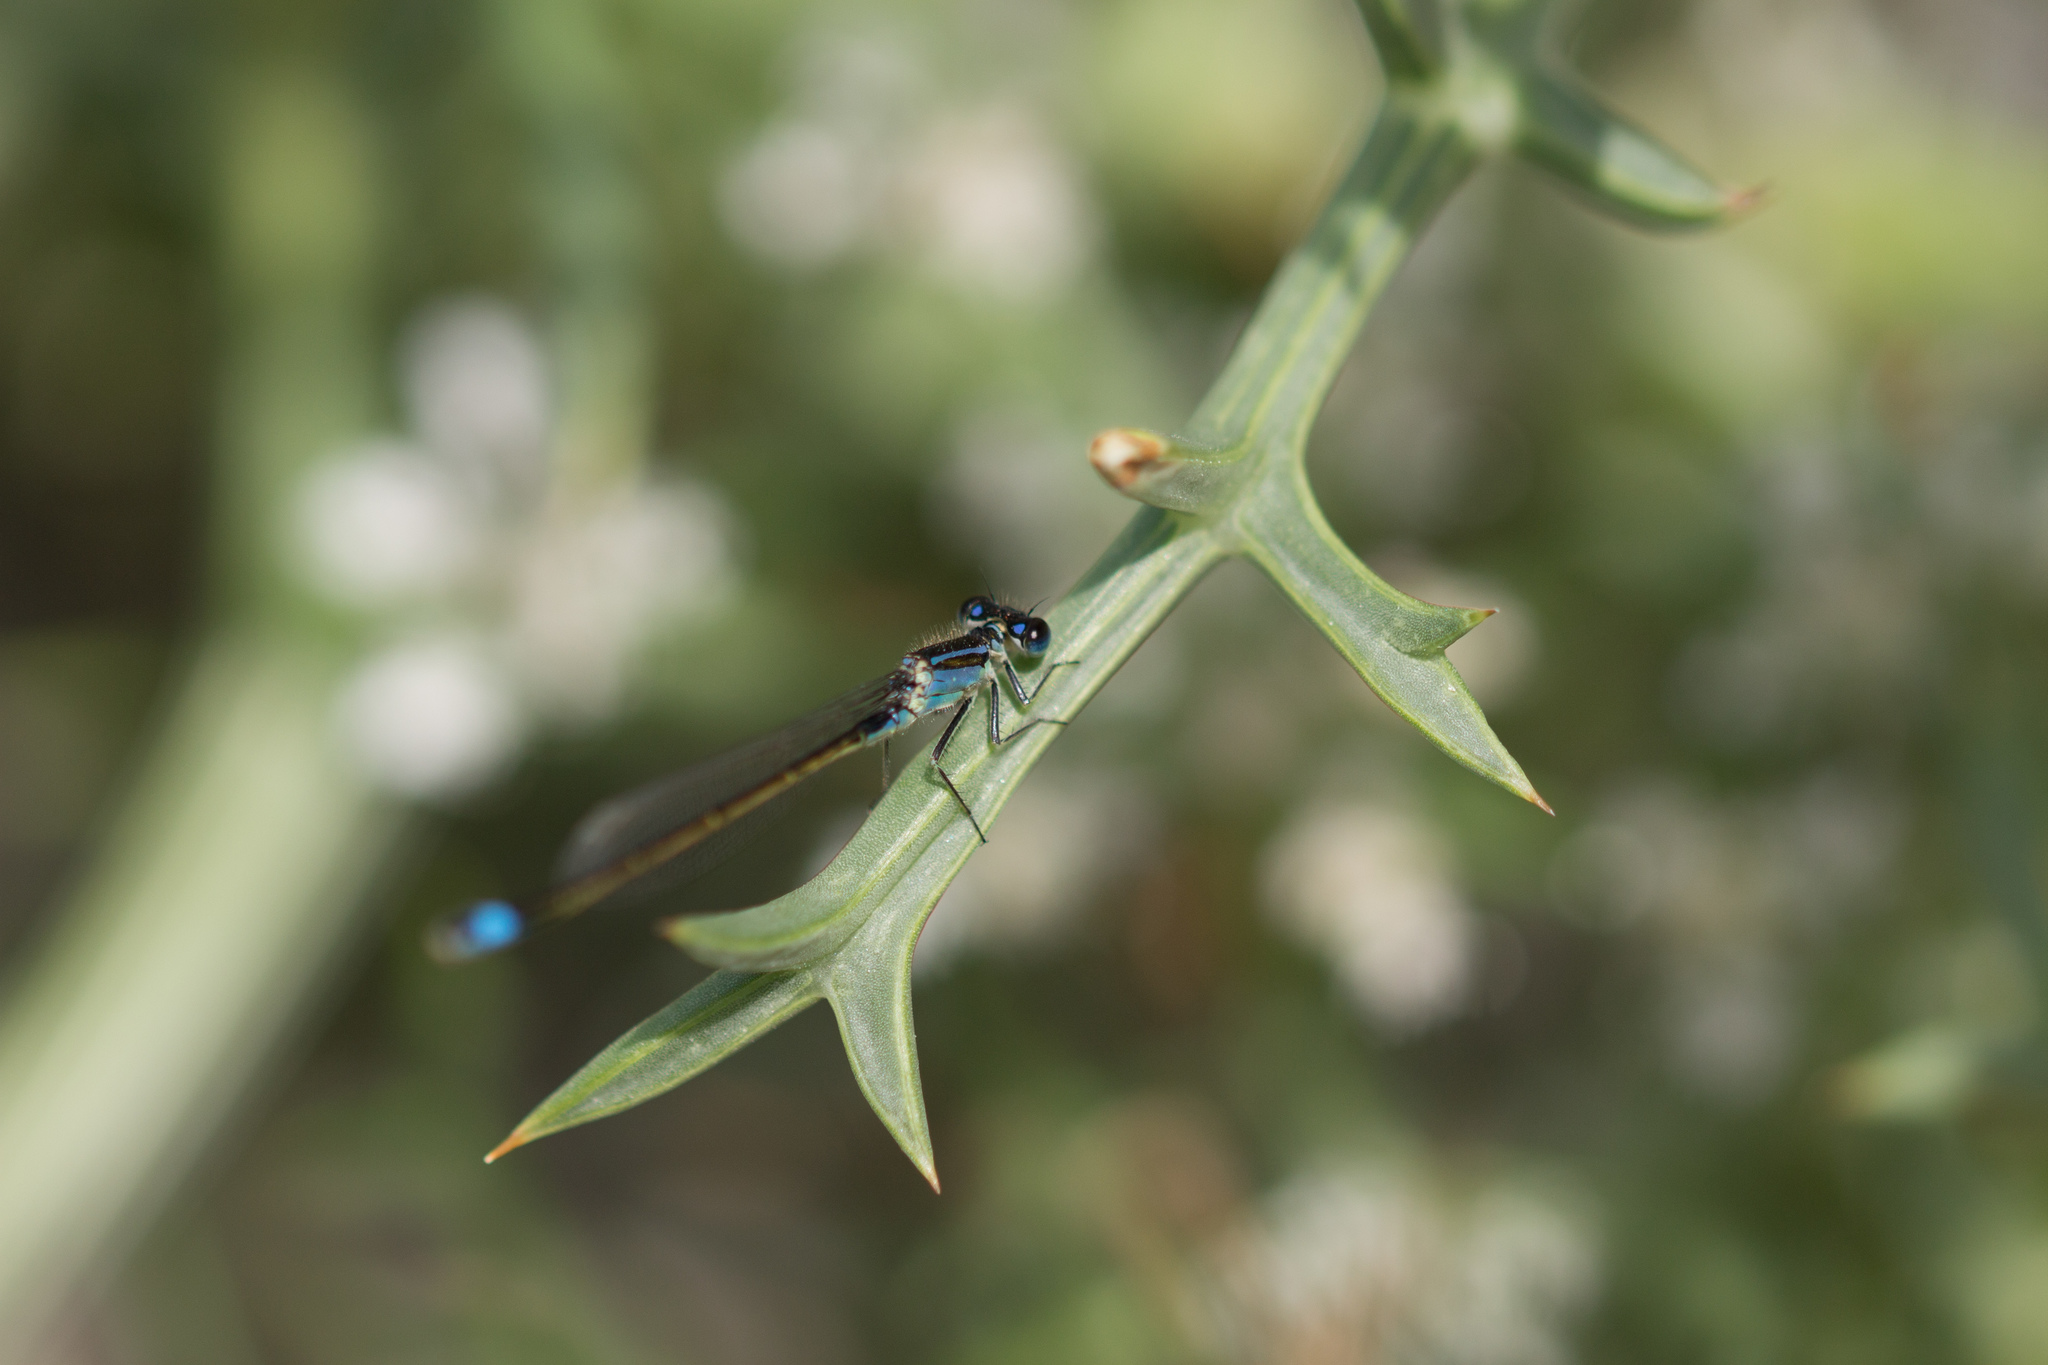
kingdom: Animalia
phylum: Arthropoda
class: Insecta
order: Odonata
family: Coenagrionidae
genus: Ischnura
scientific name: Ischnura elegans
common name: Blue-tailed damselfly
